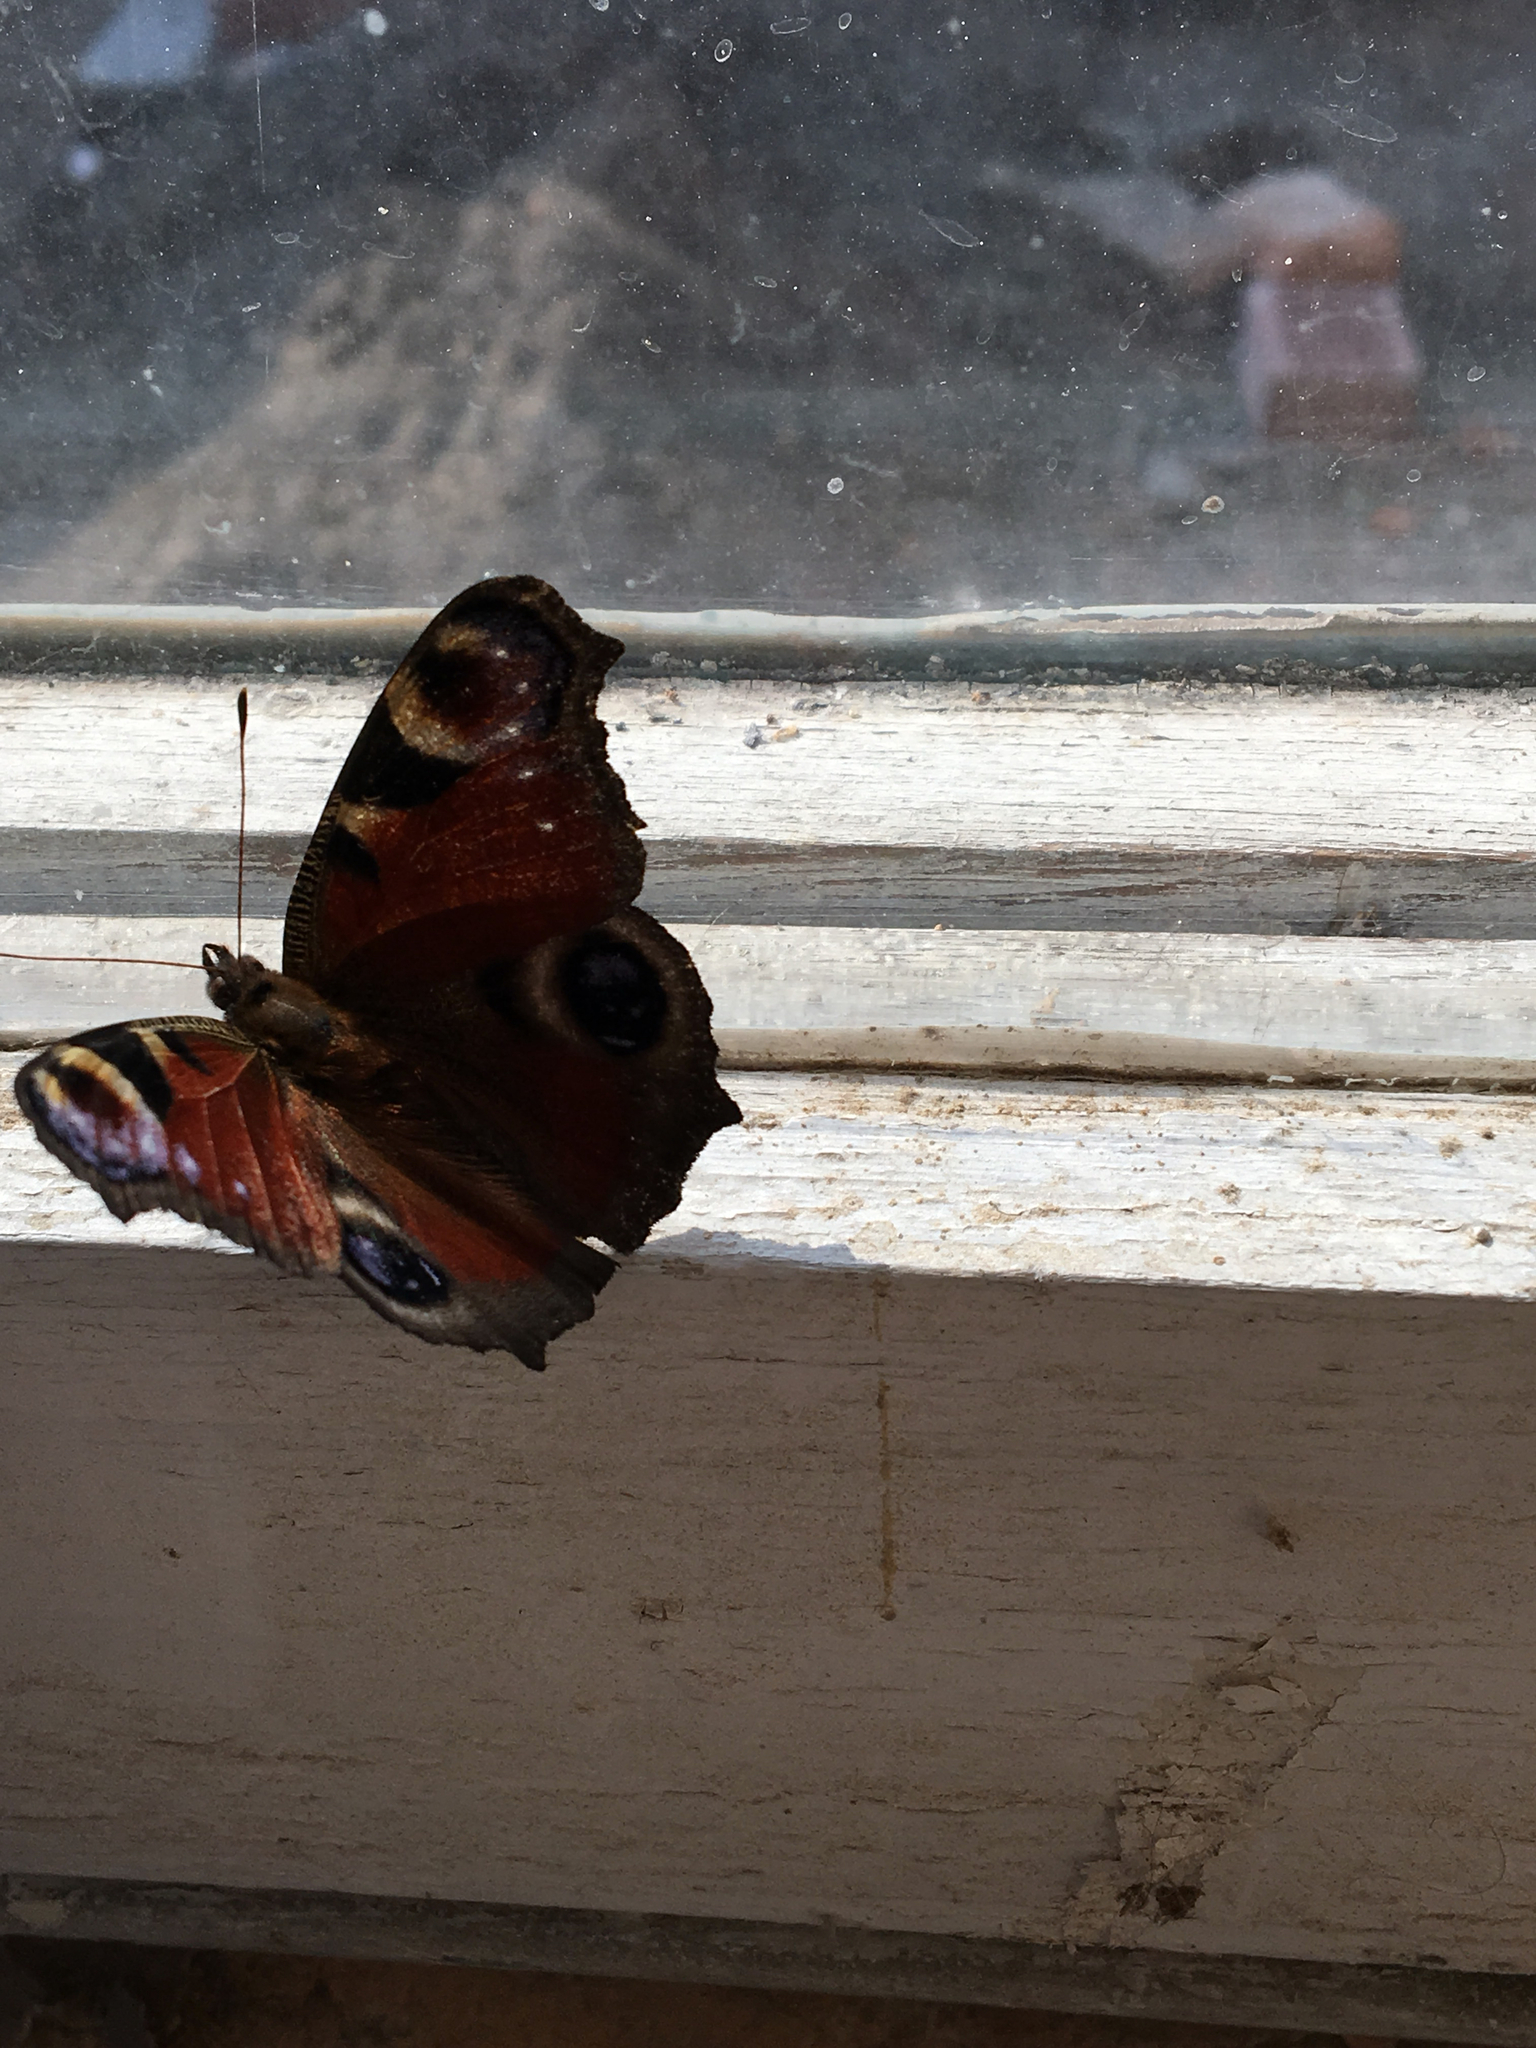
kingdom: Animalia
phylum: Arthropoda
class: Insecta
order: Lepidoptera
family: Nymphalidae
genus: Aglais
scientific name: Aglais io
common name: Peacock
